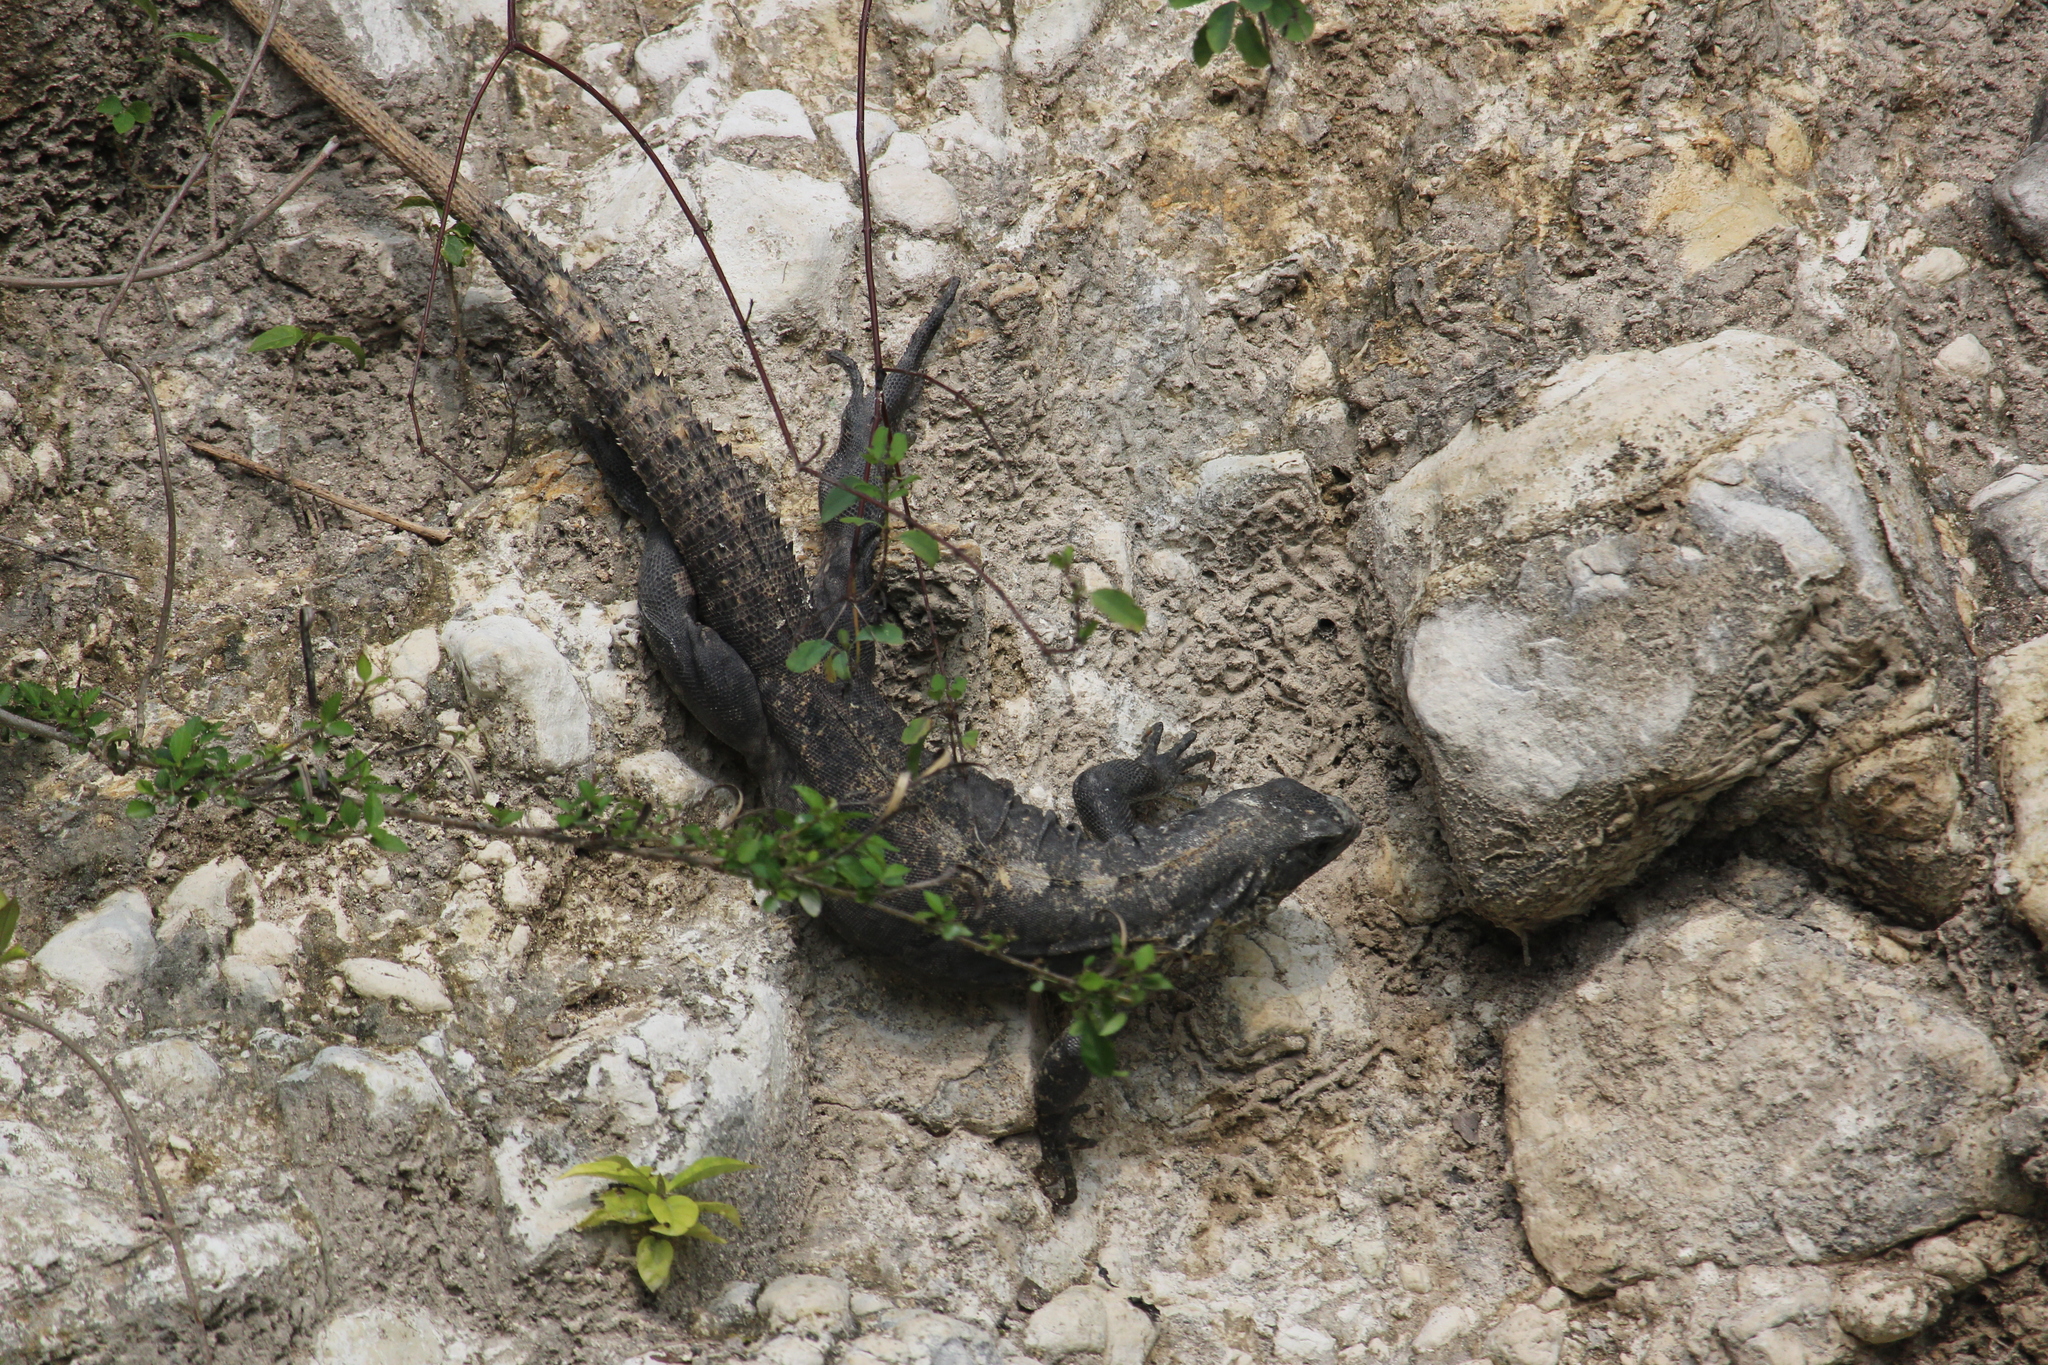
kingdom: Animalia
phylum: Chordata
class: Squamata
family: Iguanidae
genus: Ctenosaura
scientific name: Ctenosaura similis
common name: Black spiny-tailed iguana
